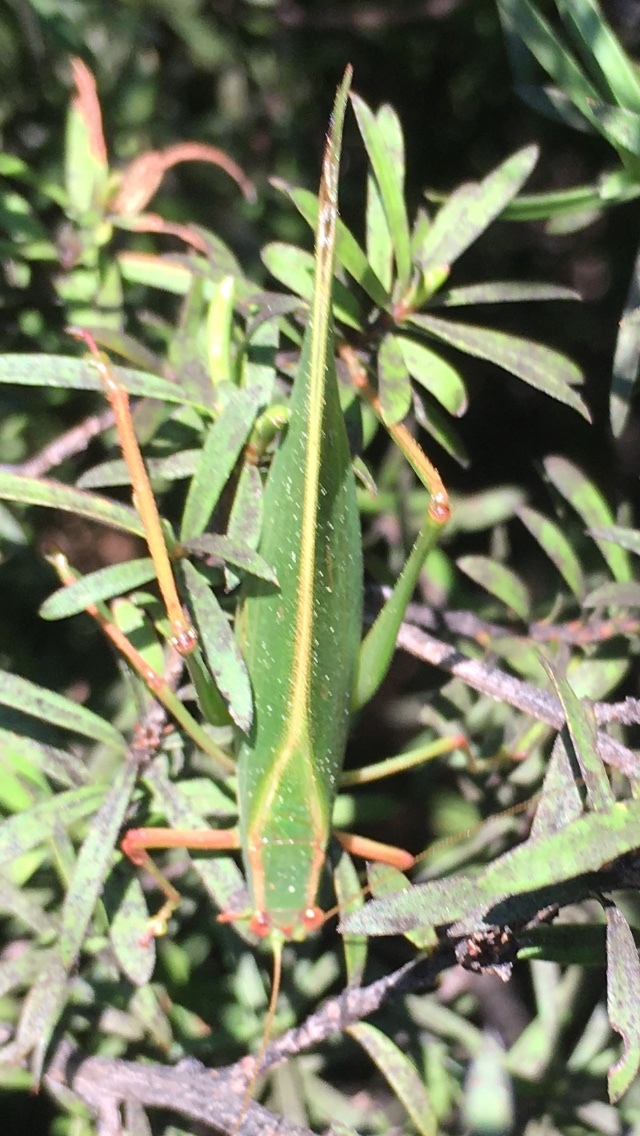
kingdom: Animalia
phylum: Arthropoda
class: Insecta
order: Orthoptera
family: Tettigoniidae
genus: Caedicia
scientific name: Caedicia simplex
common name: Common garden katydid
